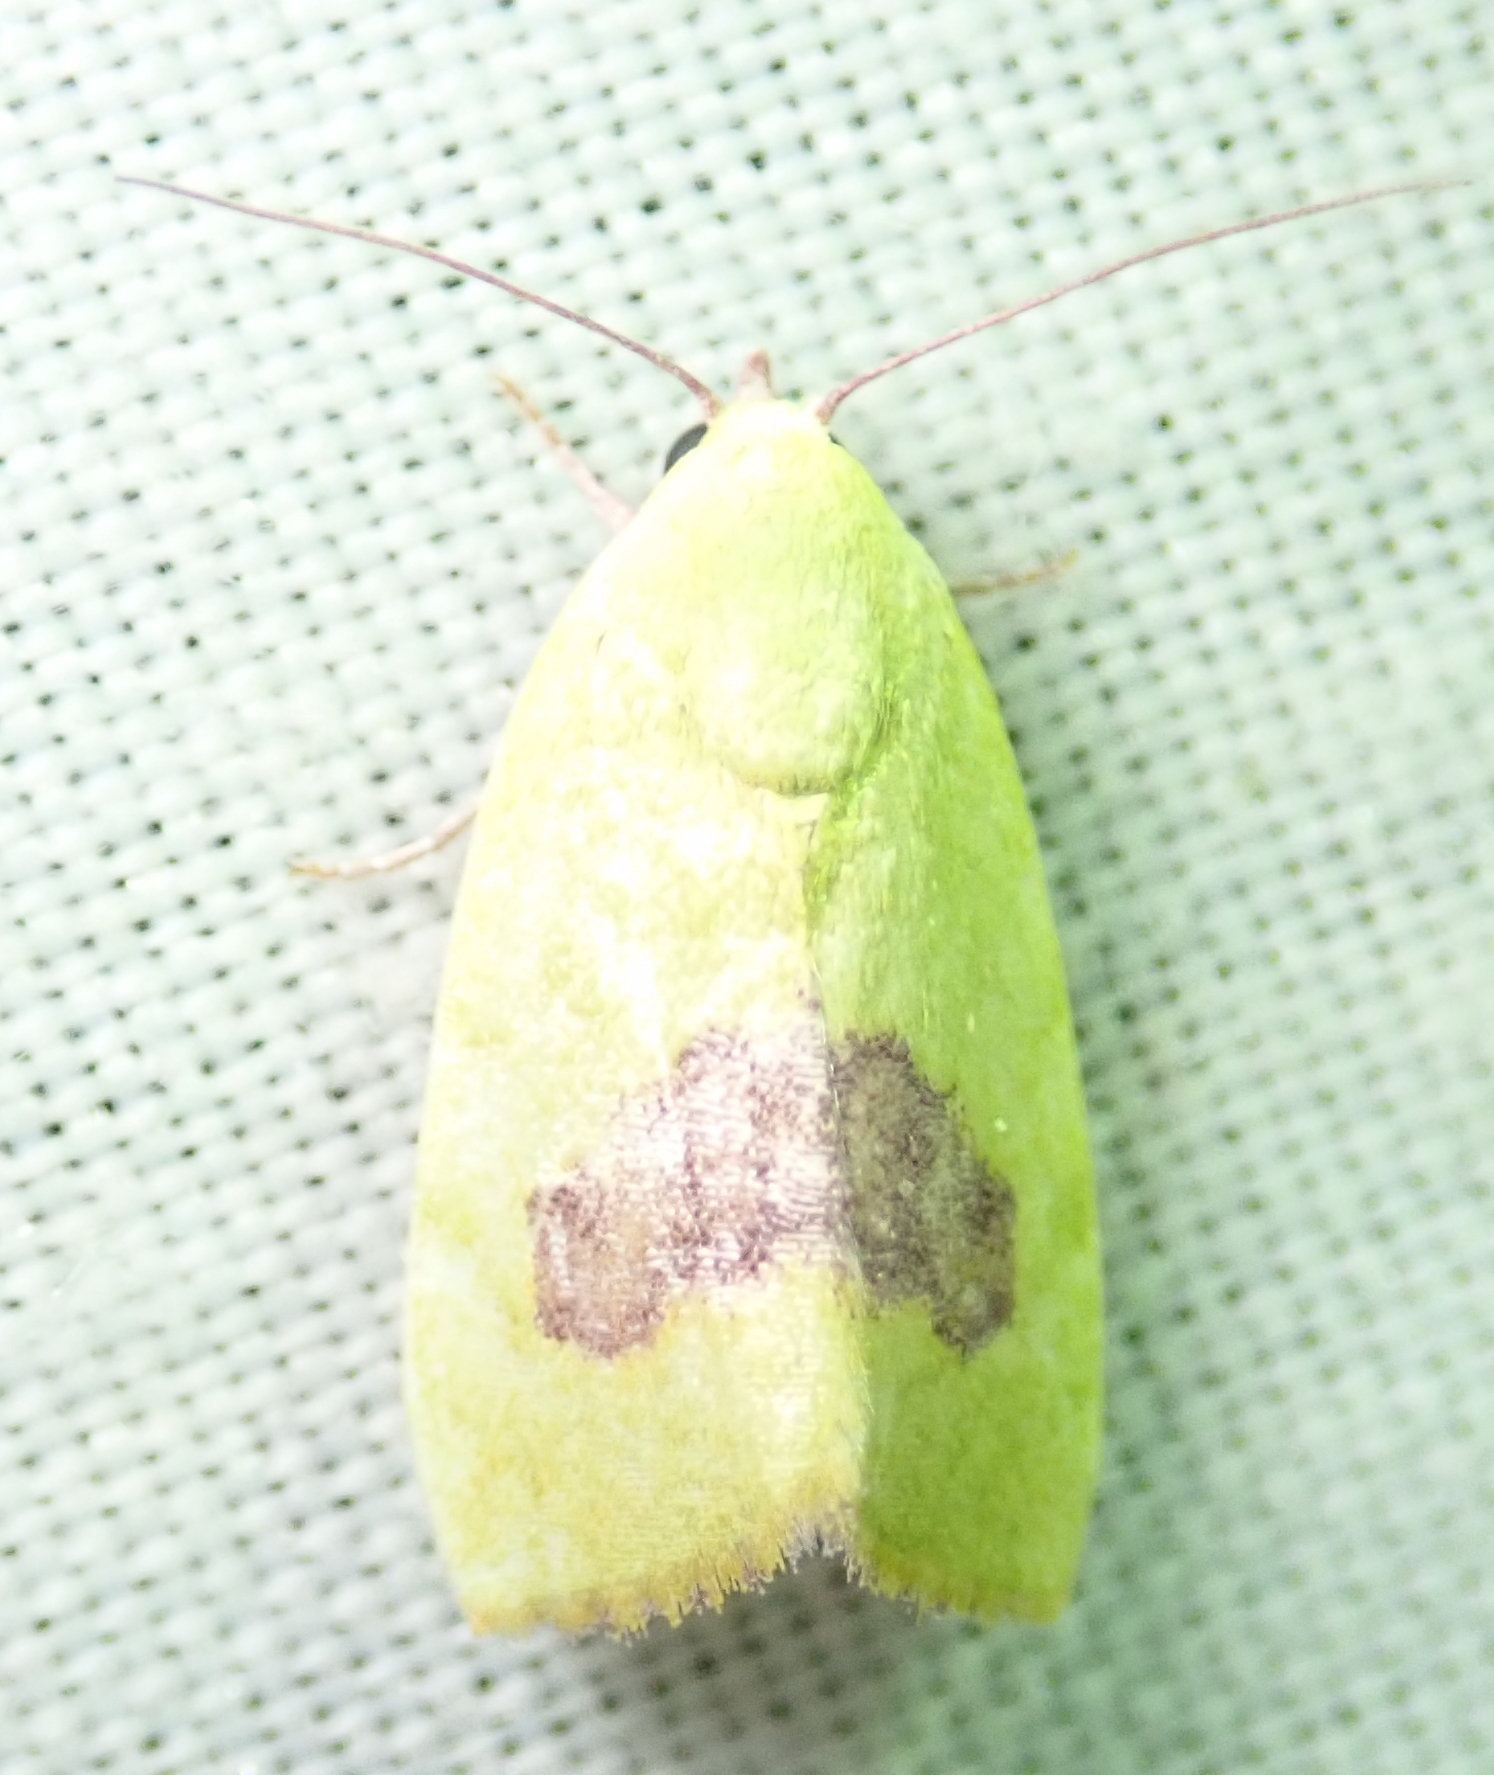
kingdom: Animalia
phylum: Arthropoda
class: Insecta
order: Lepidoptera
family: Nolidae
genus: Earias
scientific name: Earias biplaga
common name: Spiny bollworm
